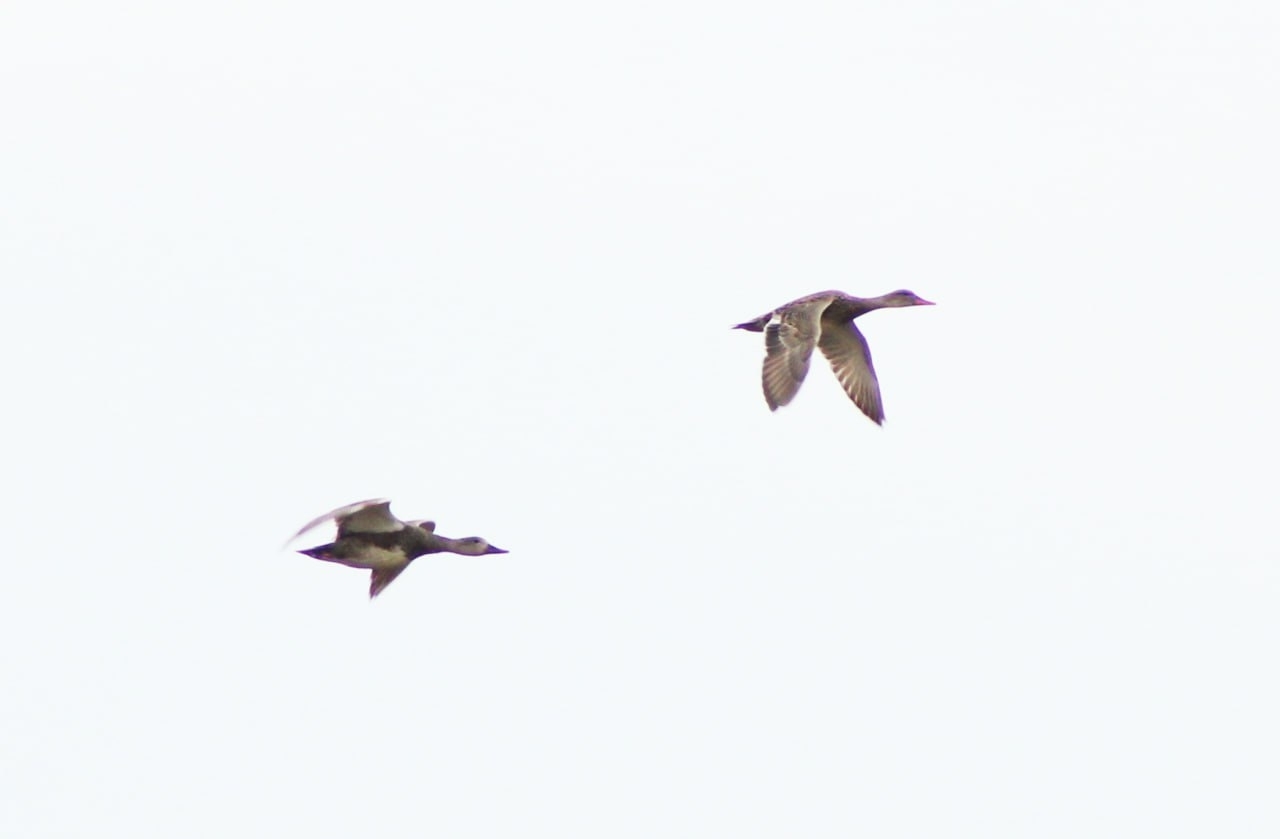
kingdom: Animalia
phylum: Chordata
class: Aves
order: Anseriformes
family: Anatidae
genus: Mareca
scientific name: Mareca strepera
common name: Gadwall
